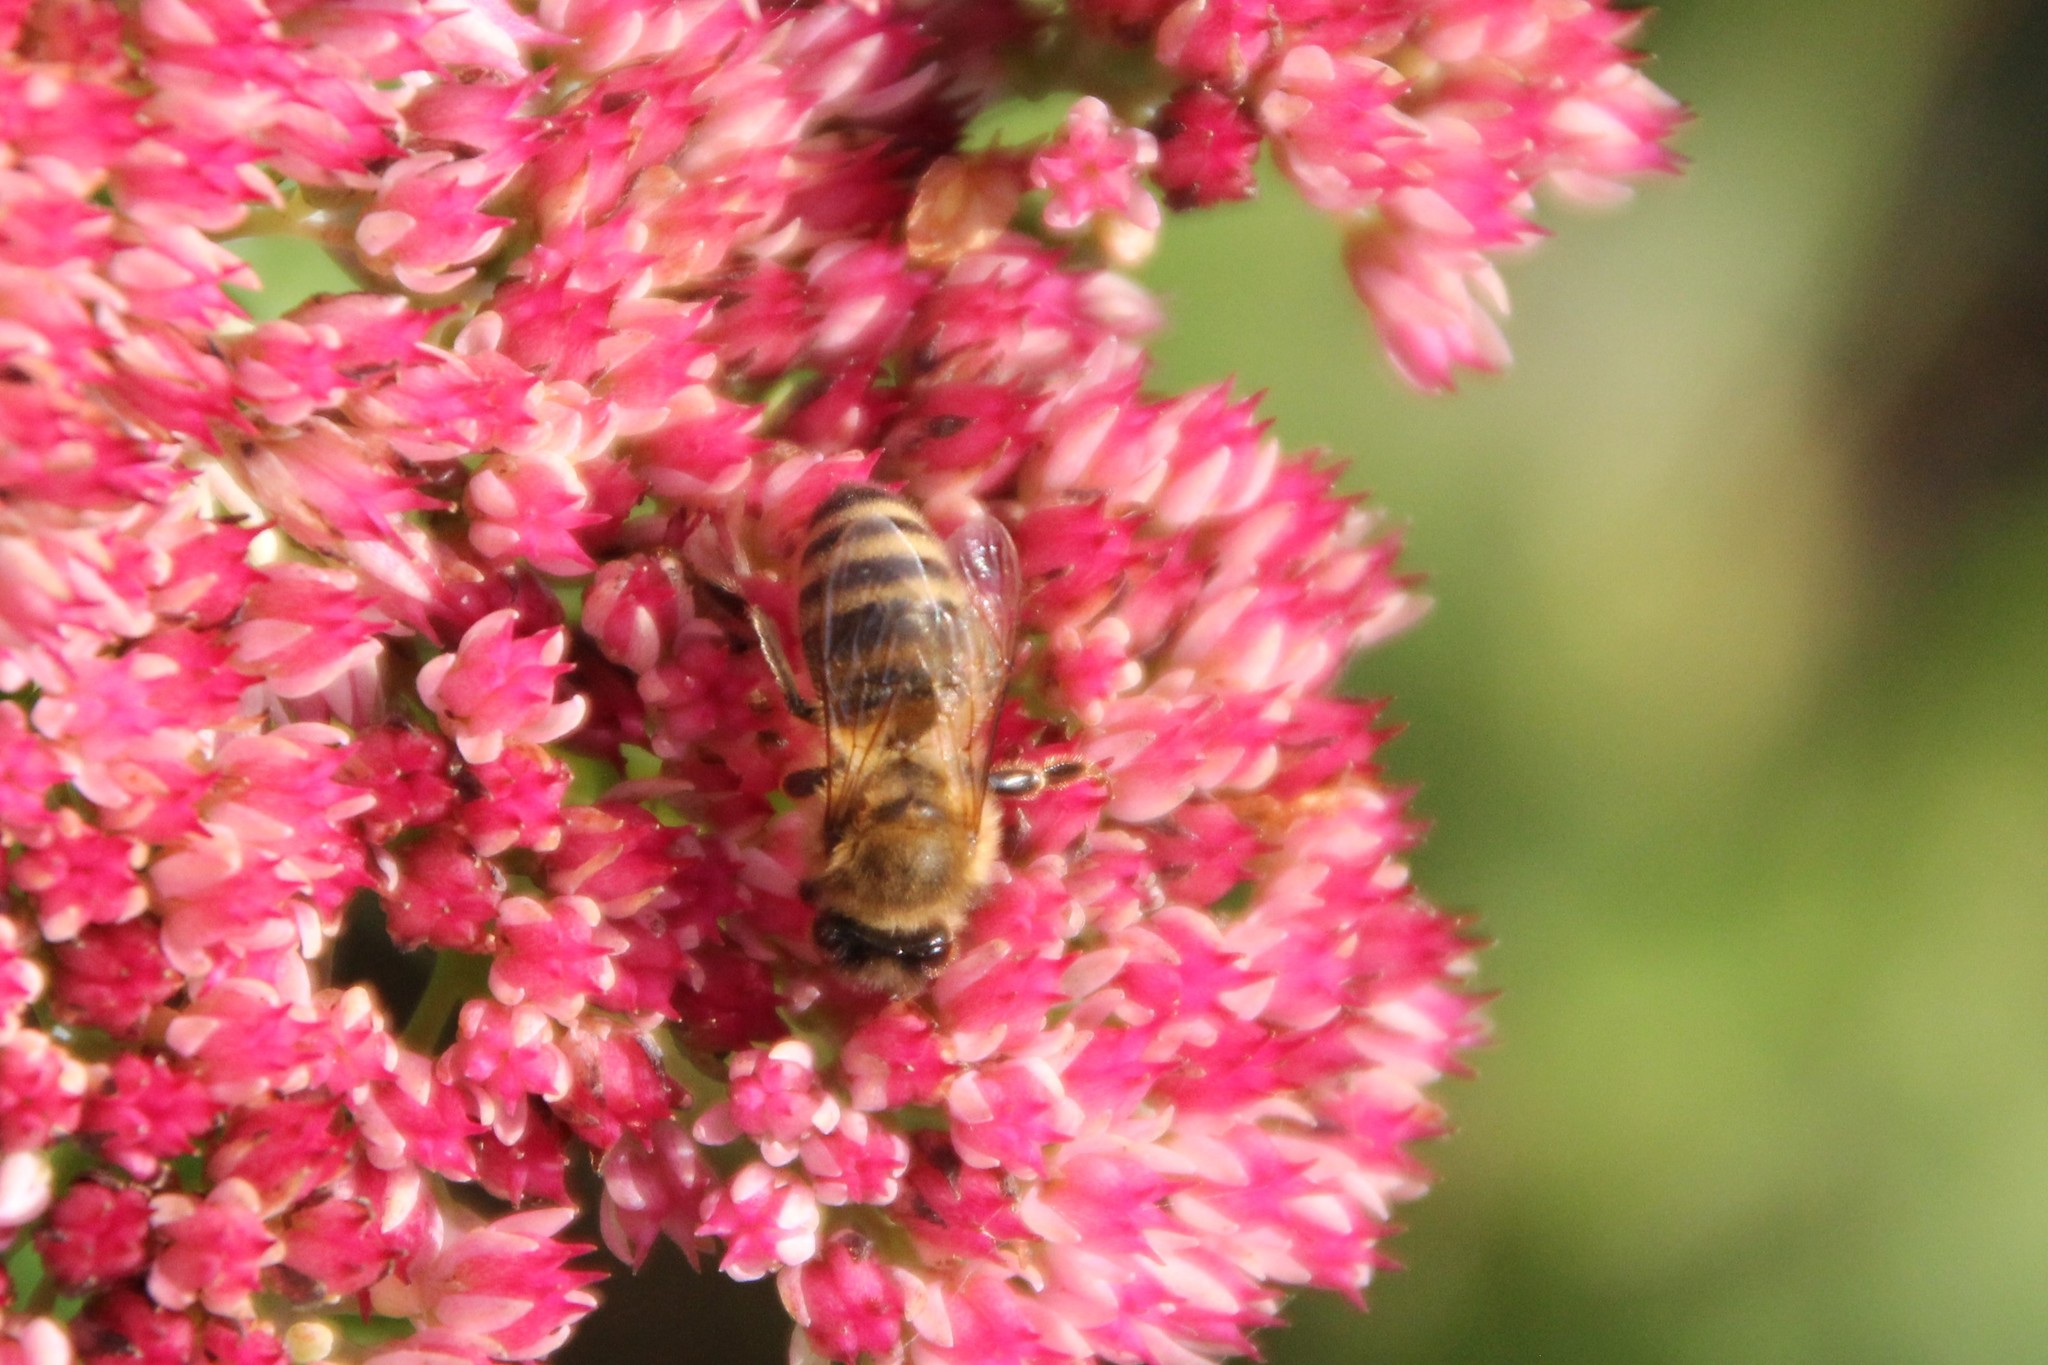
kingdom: Animalia
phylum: Arthropoda
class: Insecta
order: Hymenoptera
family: Apidae
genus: Apis
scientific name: Apis mellifera
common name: Honey bee
